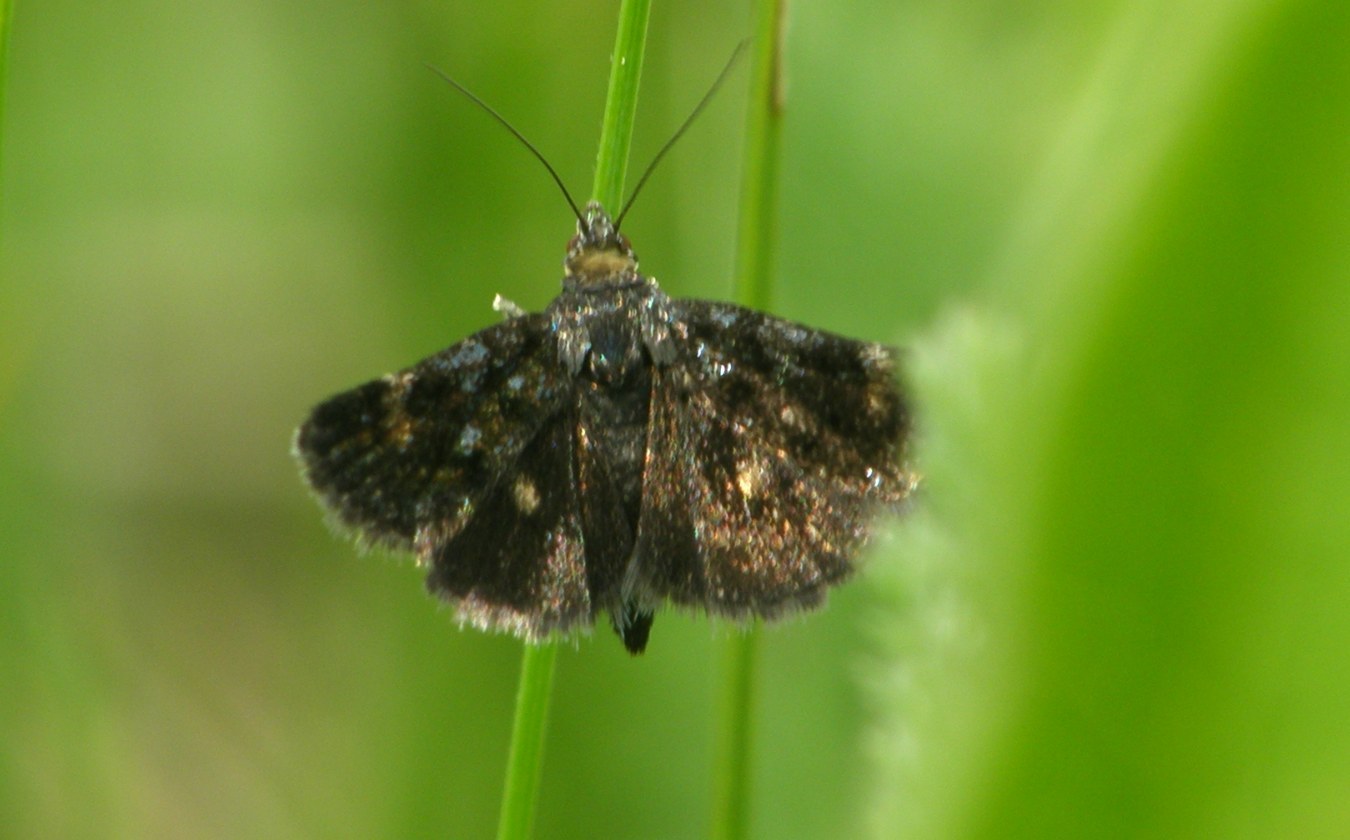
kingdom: Animalia
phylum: Arthropoda
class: Insecta
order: Lepidoptera
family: Crambidae
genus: Heliothela
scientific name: Heliothela wulfeniana
